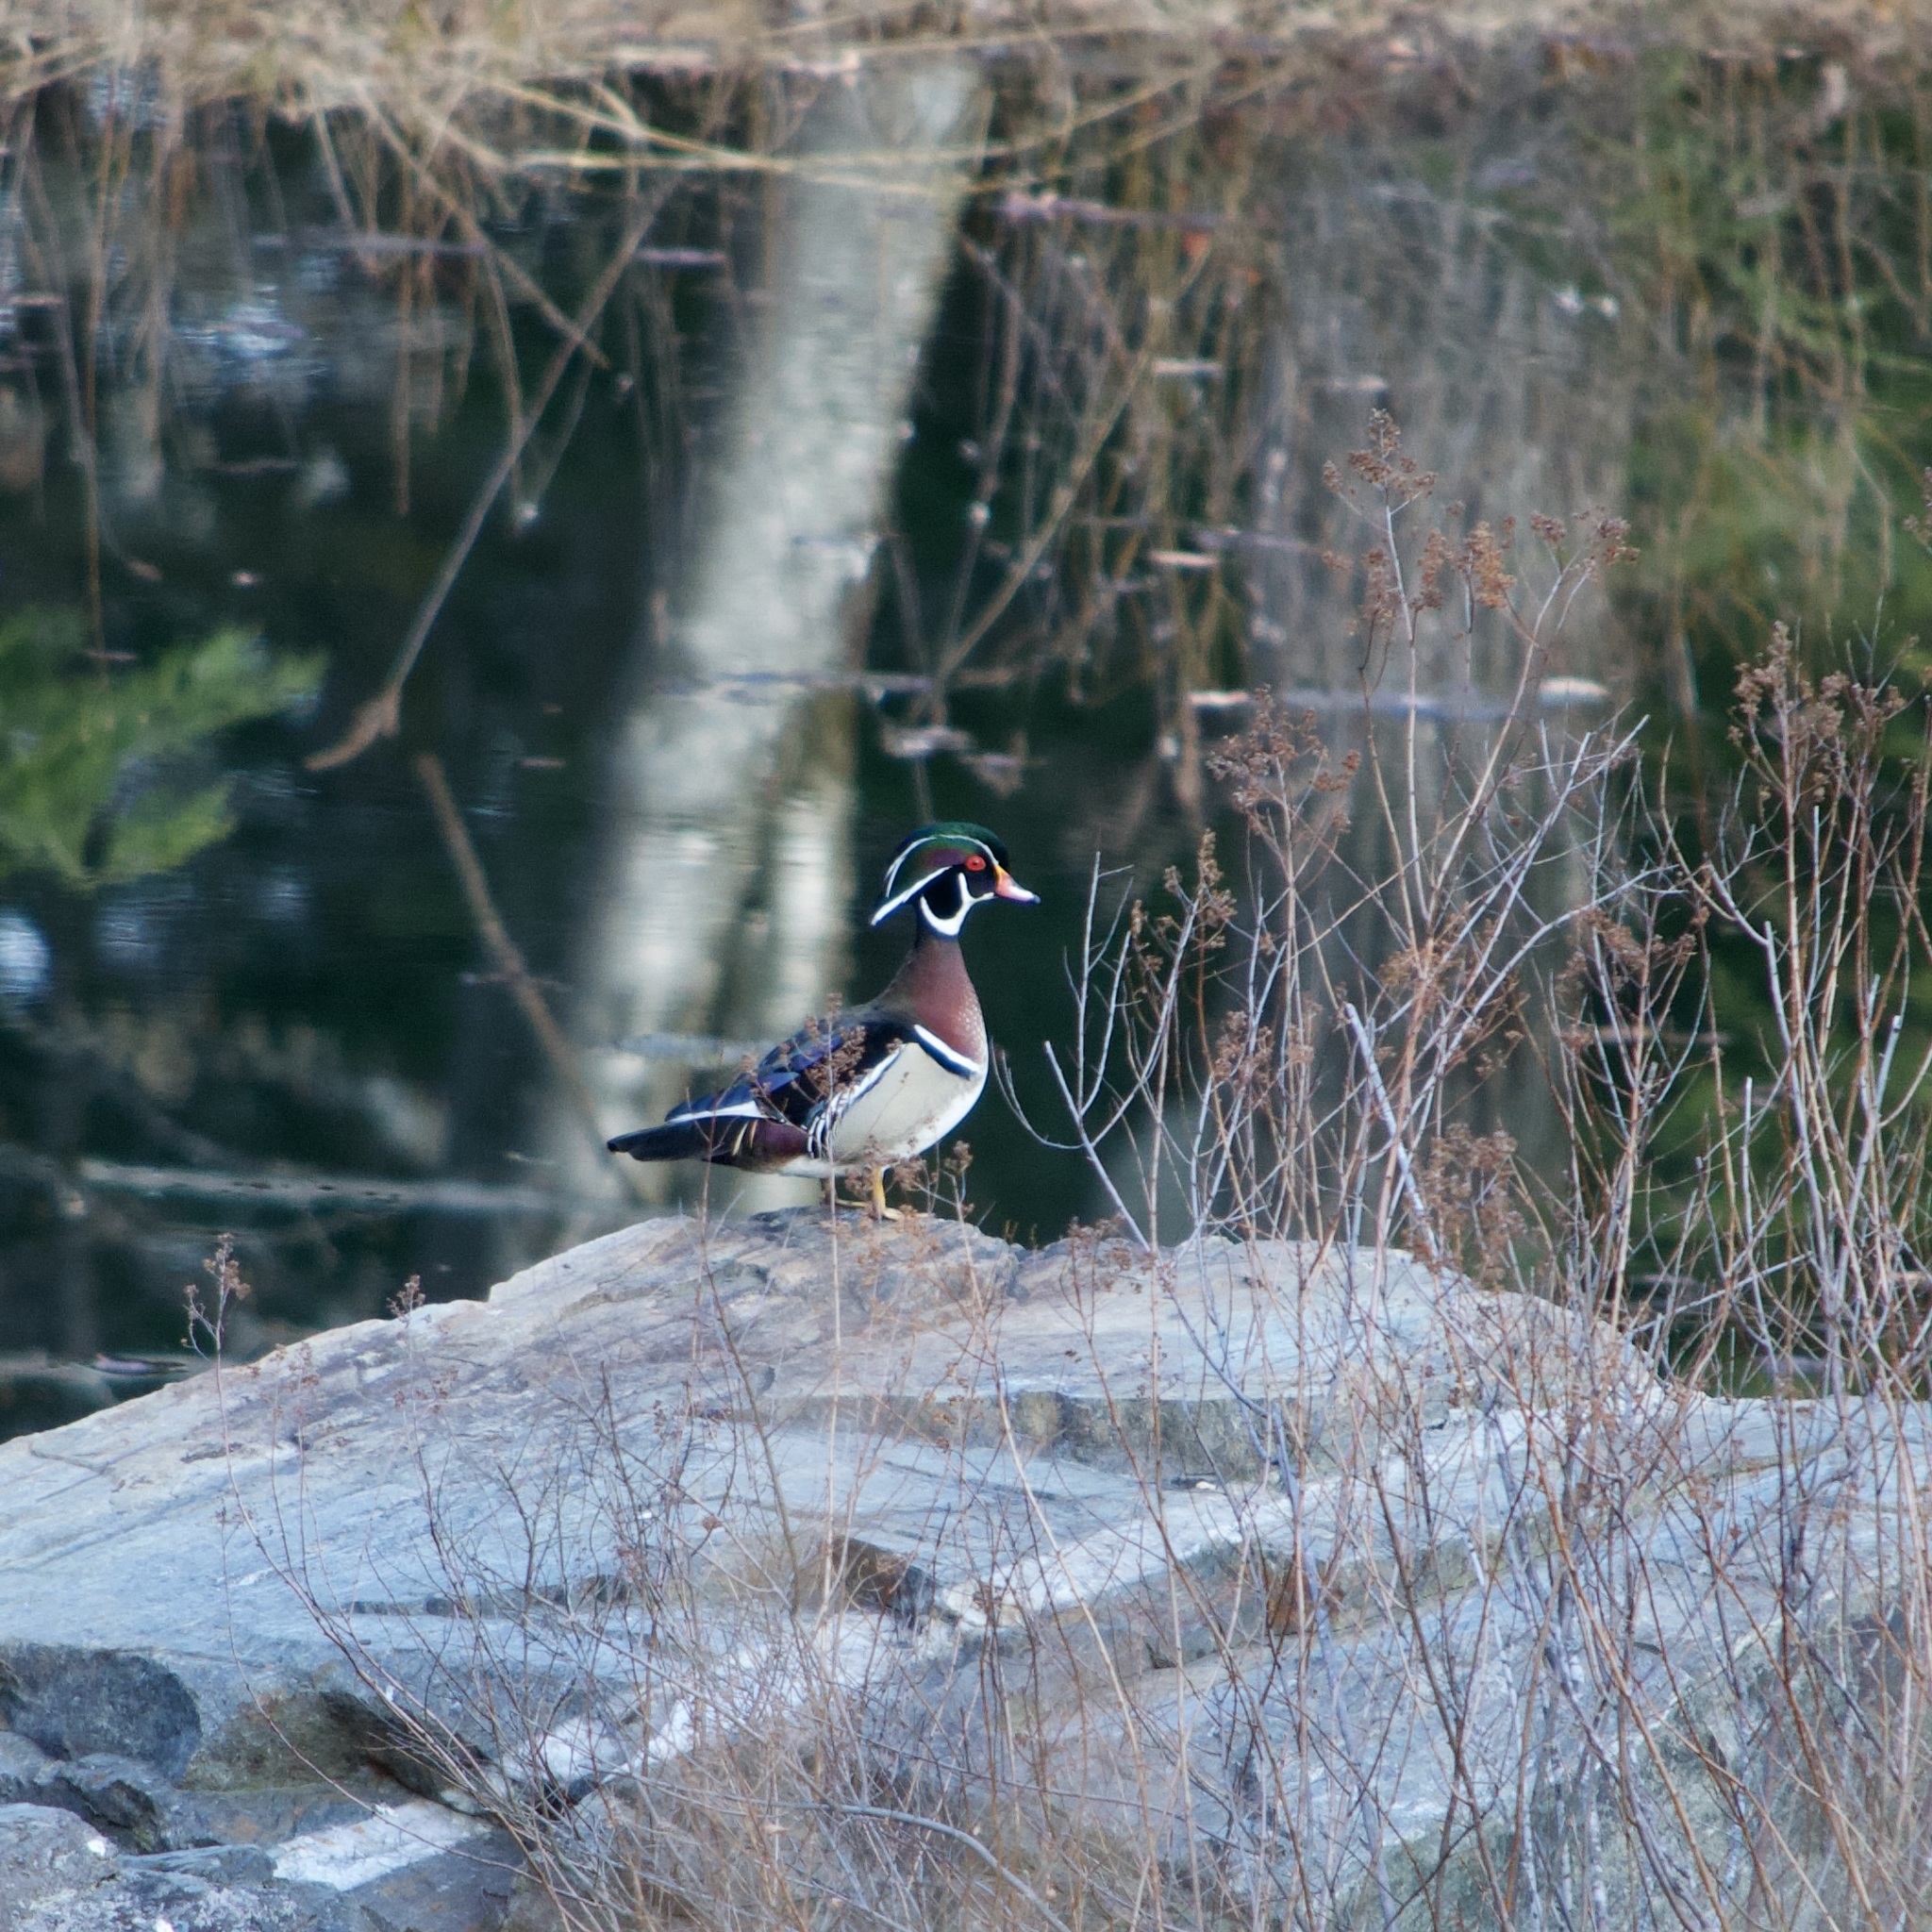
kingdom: Animalia
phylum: Chordata
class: Aves
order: Anseriformes
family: Anatidae
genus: Aix
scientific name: Aix sponsa
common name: Wood duck
